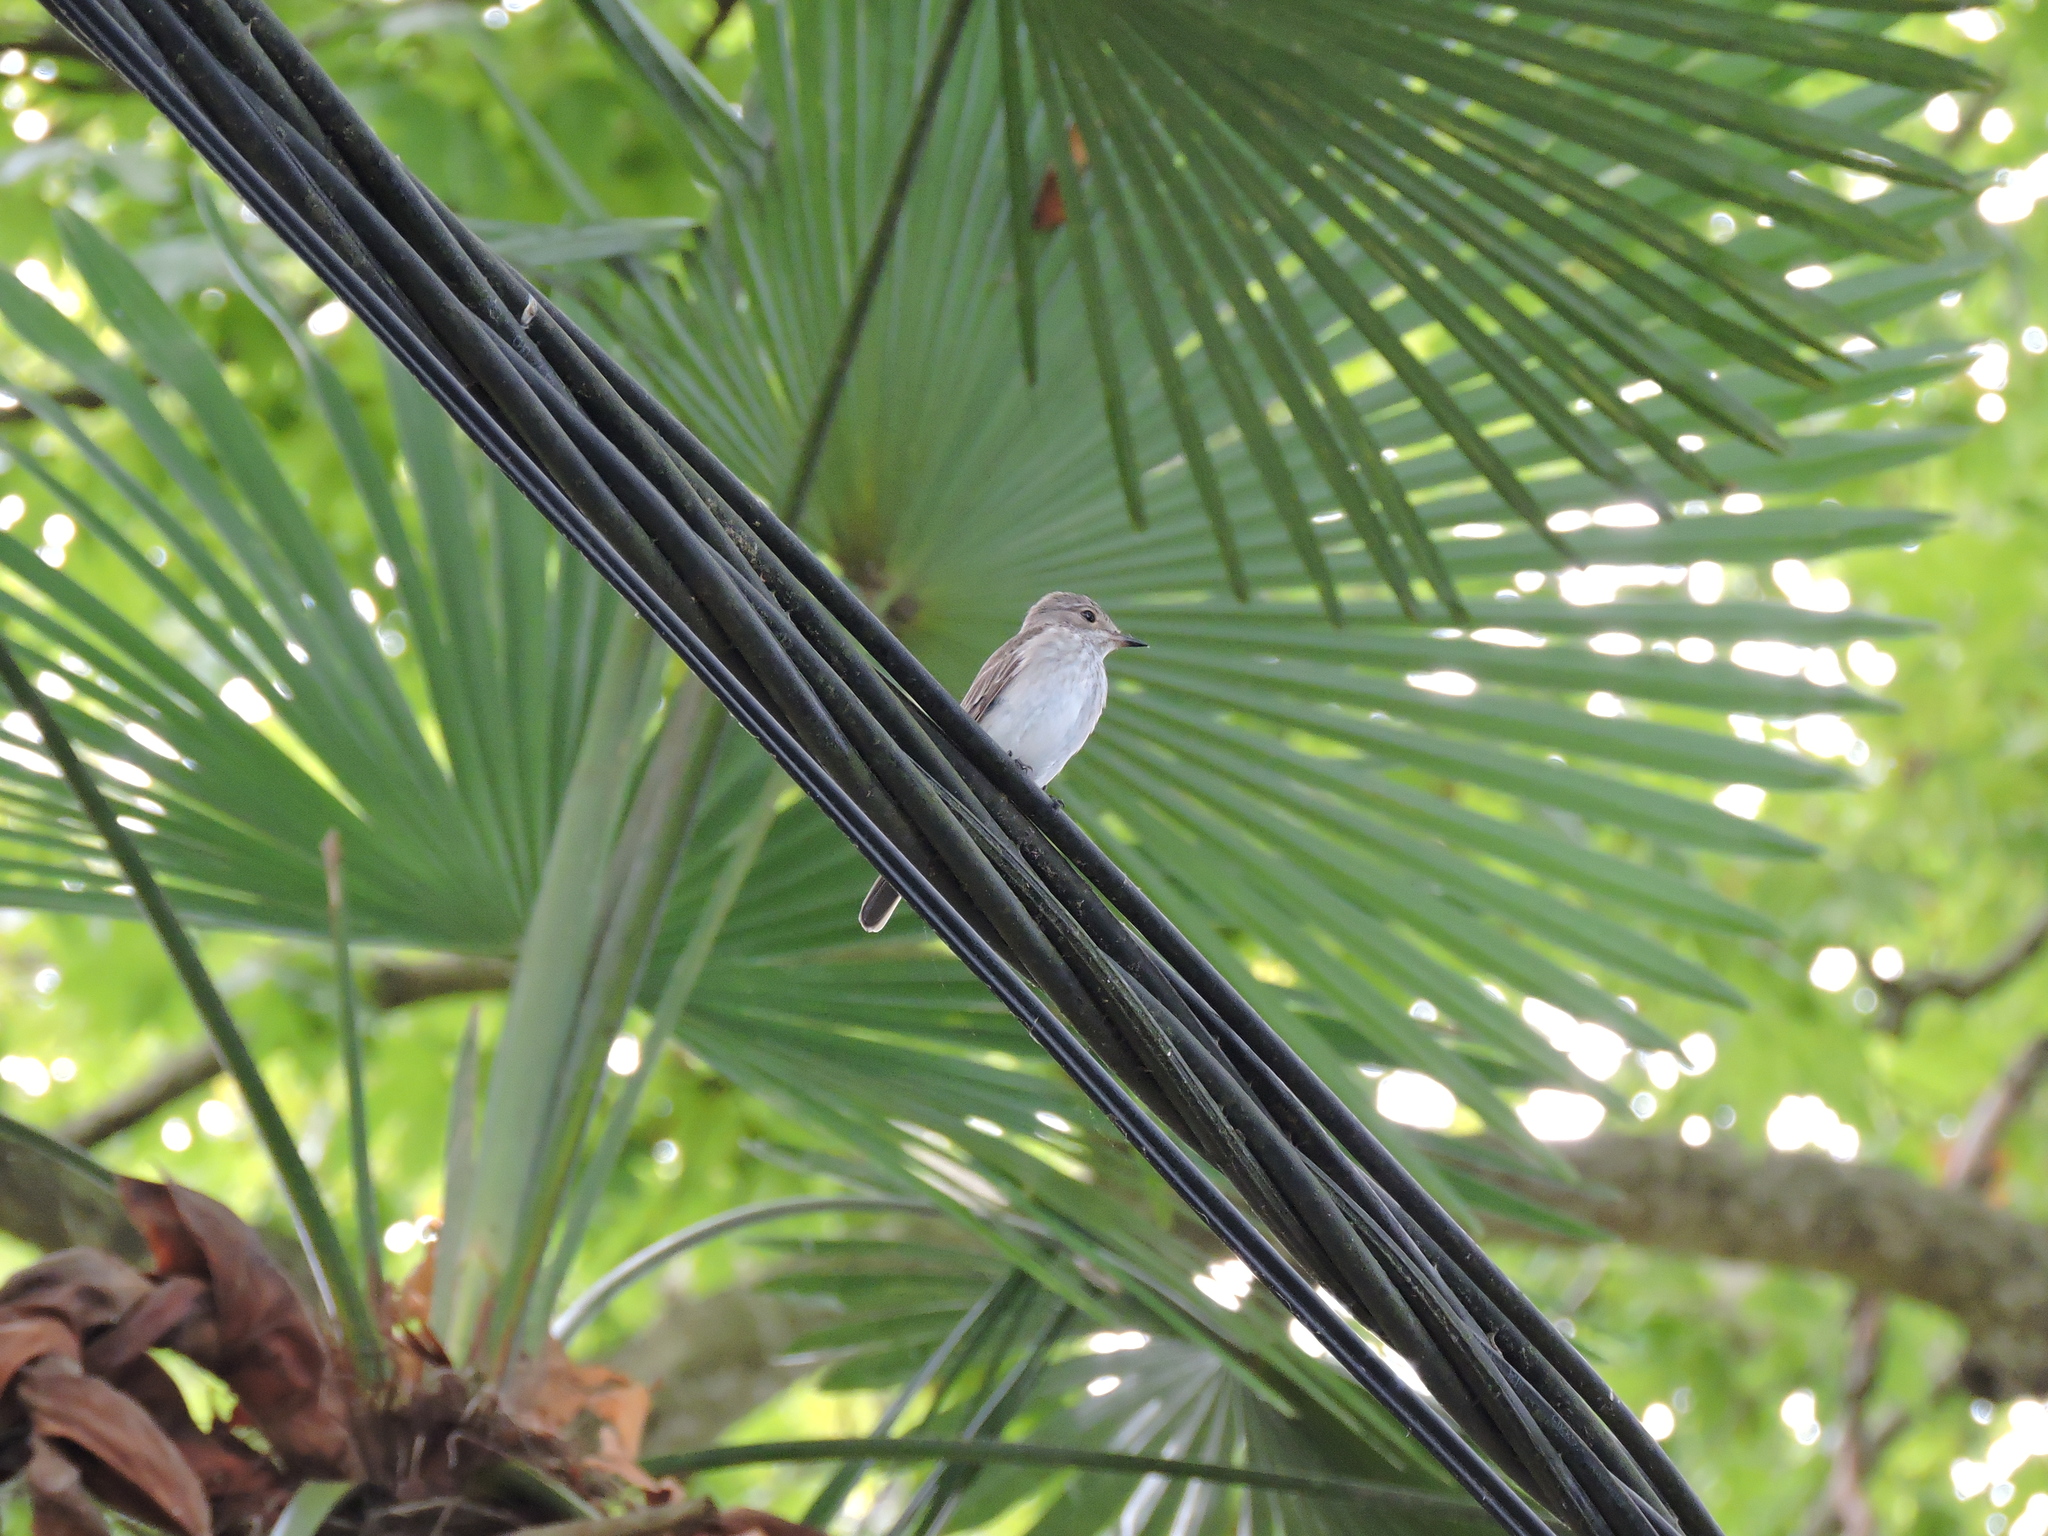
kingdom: Animalia
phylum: Chordata
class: Aves
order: Passeriformes
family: Muscicapidae
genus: Muscicapa
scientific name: Muscicapa striata
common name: Spotted flycatcher
